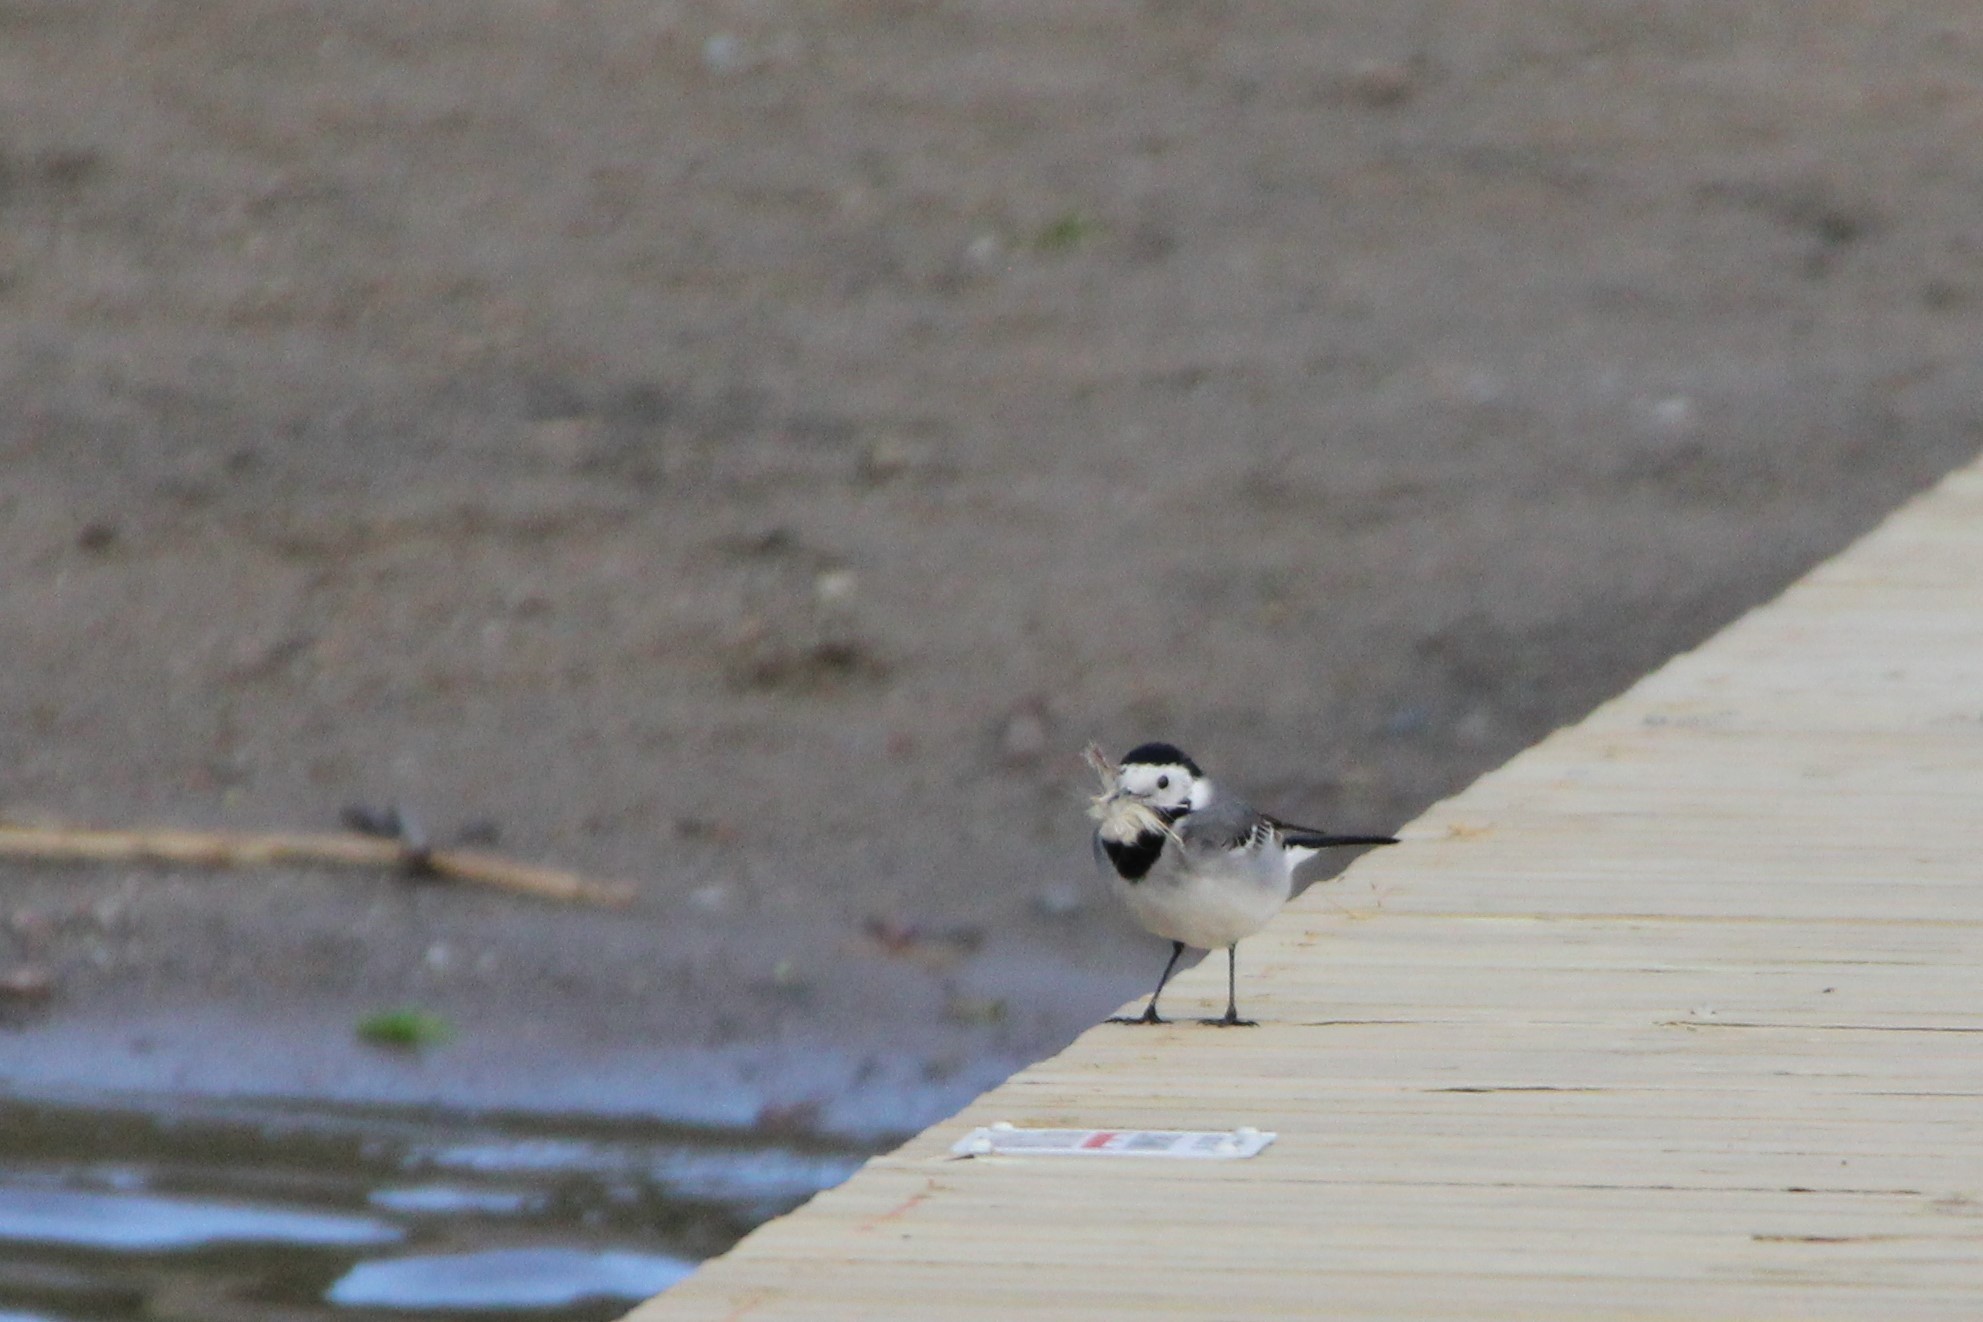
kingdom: Animalia
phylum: Chordata
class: Aves
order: Passeriformes
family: Motacillidae
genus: Motacilla
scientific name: Motacilla alba
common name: White wagtail
